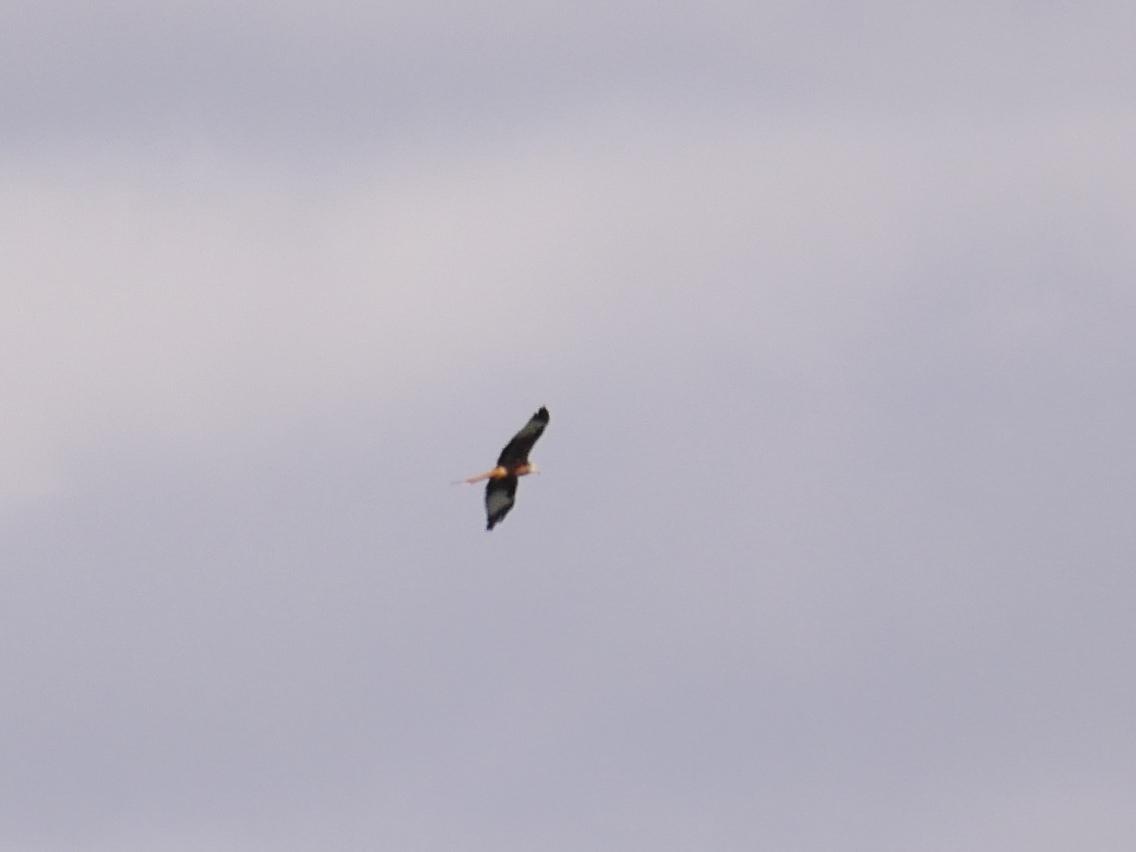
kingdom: Animalia
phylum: Chordata
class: Aves
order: Accipitriformes
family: Accipitridae
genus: Milvus
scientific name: Milvus milvus
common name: Red kite
